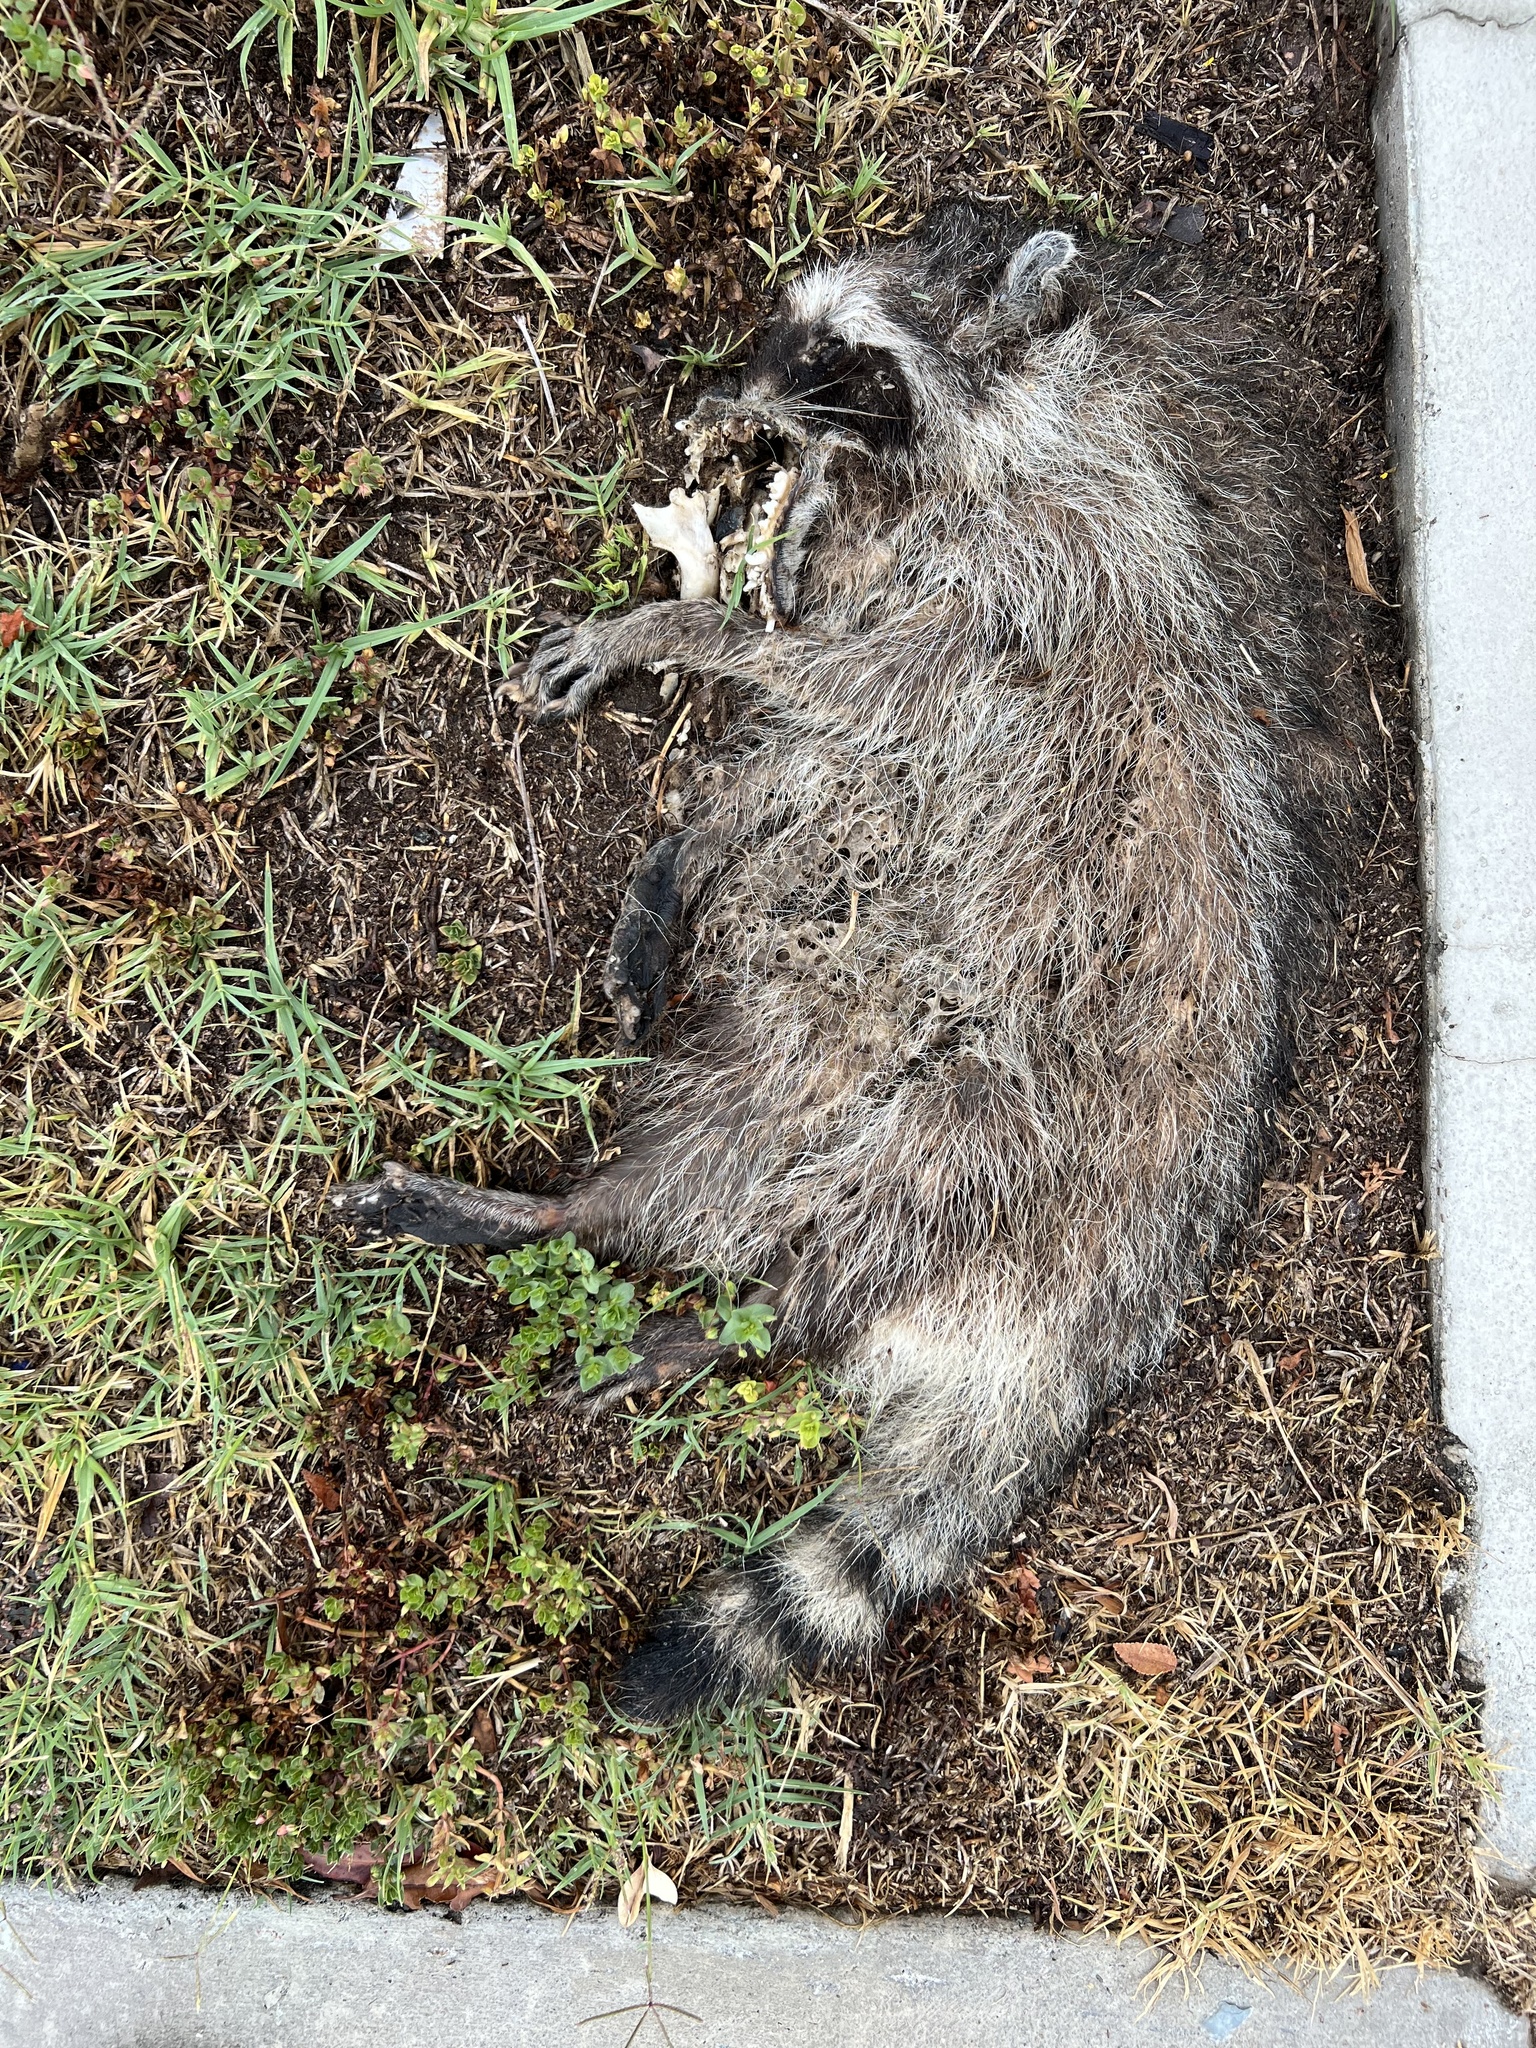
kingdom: Animalia
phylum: Chordata
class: Mammalia
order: Carnivora
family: Procyonidae
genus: Procyon
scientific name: Procyon lotor
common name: Raccoon
